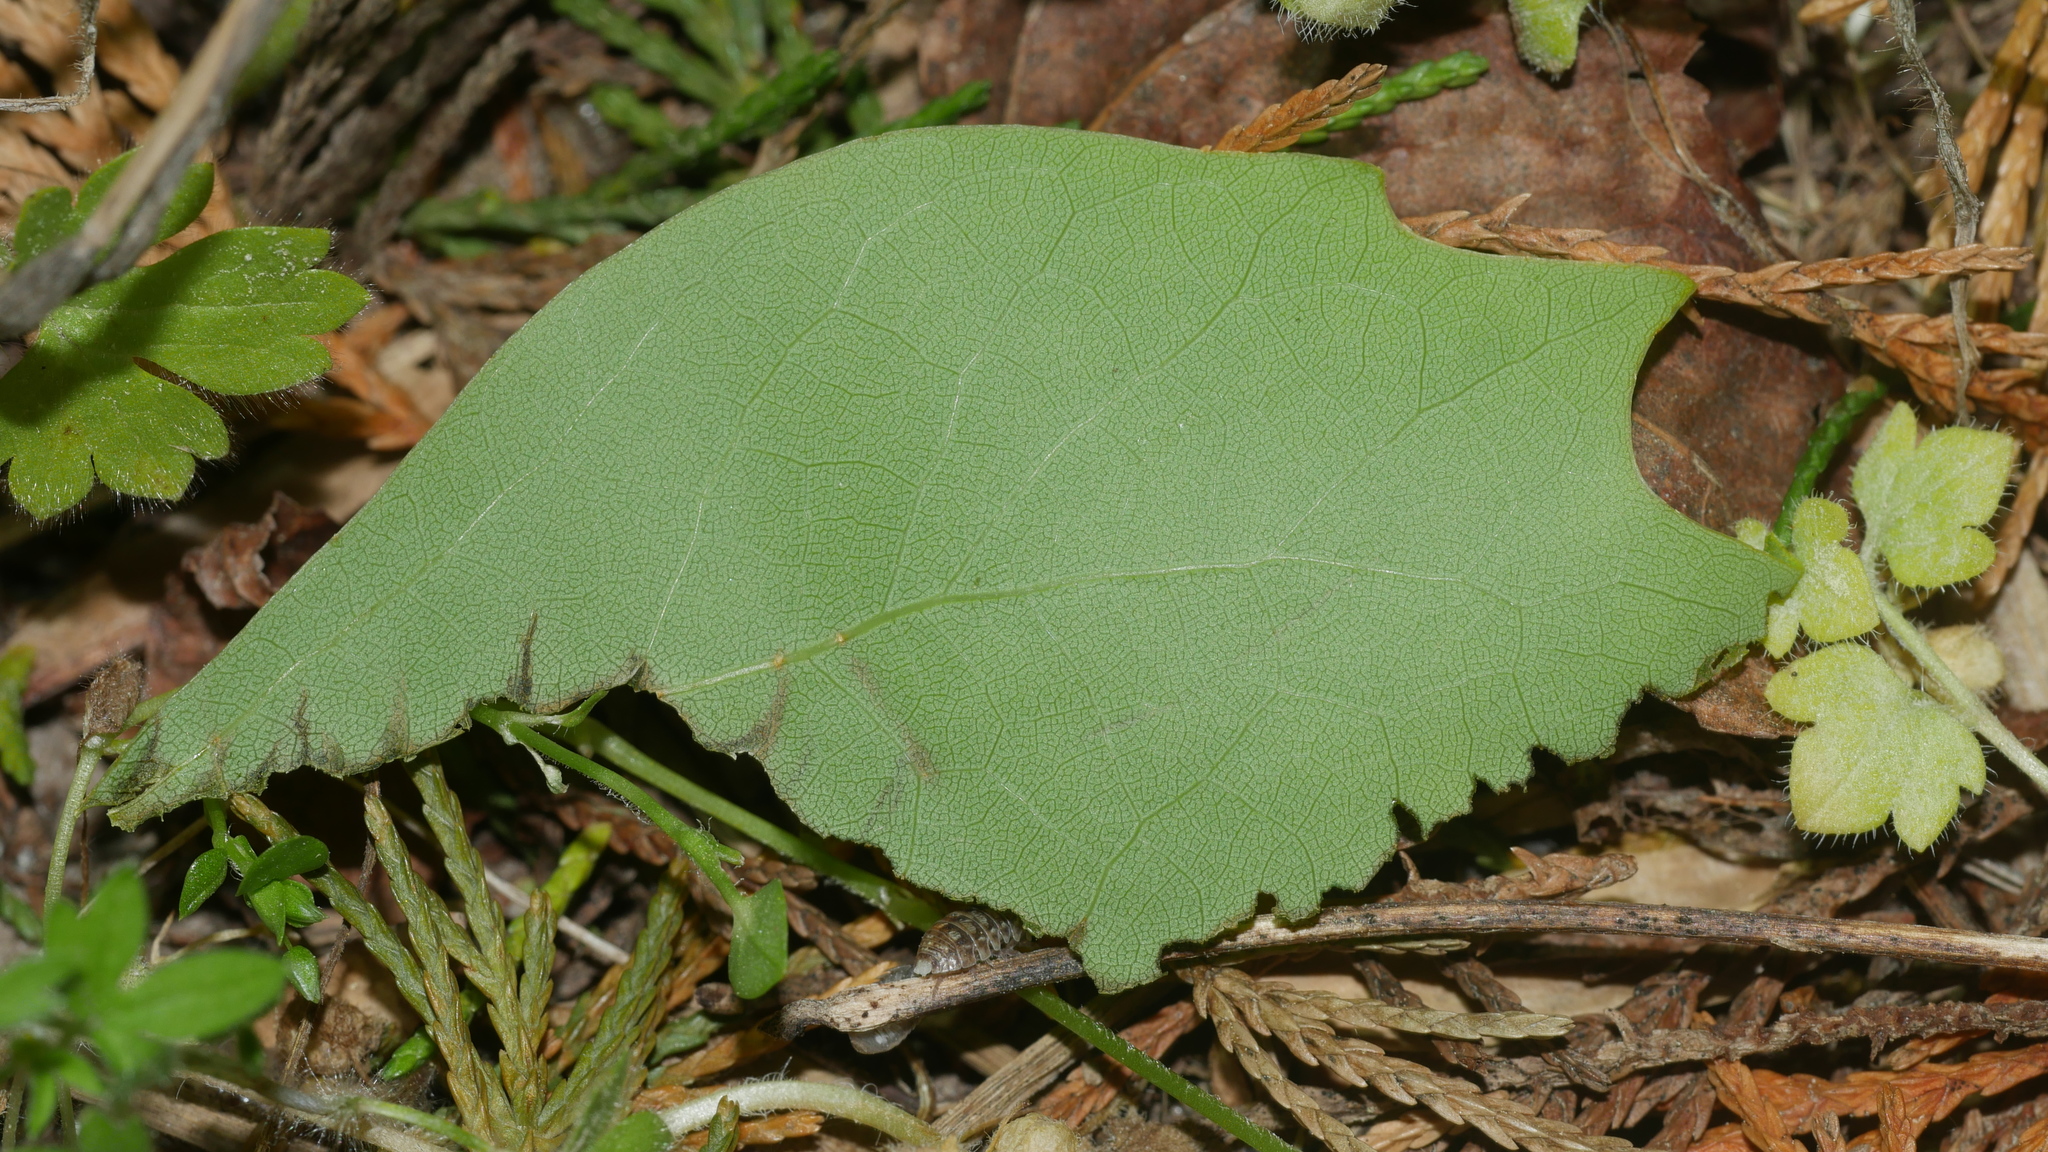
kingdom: Animalia
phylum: Arthropoda
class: Malacostraca
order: Isopoda
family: Armadillidiidae
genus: Armadillidium
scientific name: Armadillidium vulgare
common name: Common pill woodlouse
